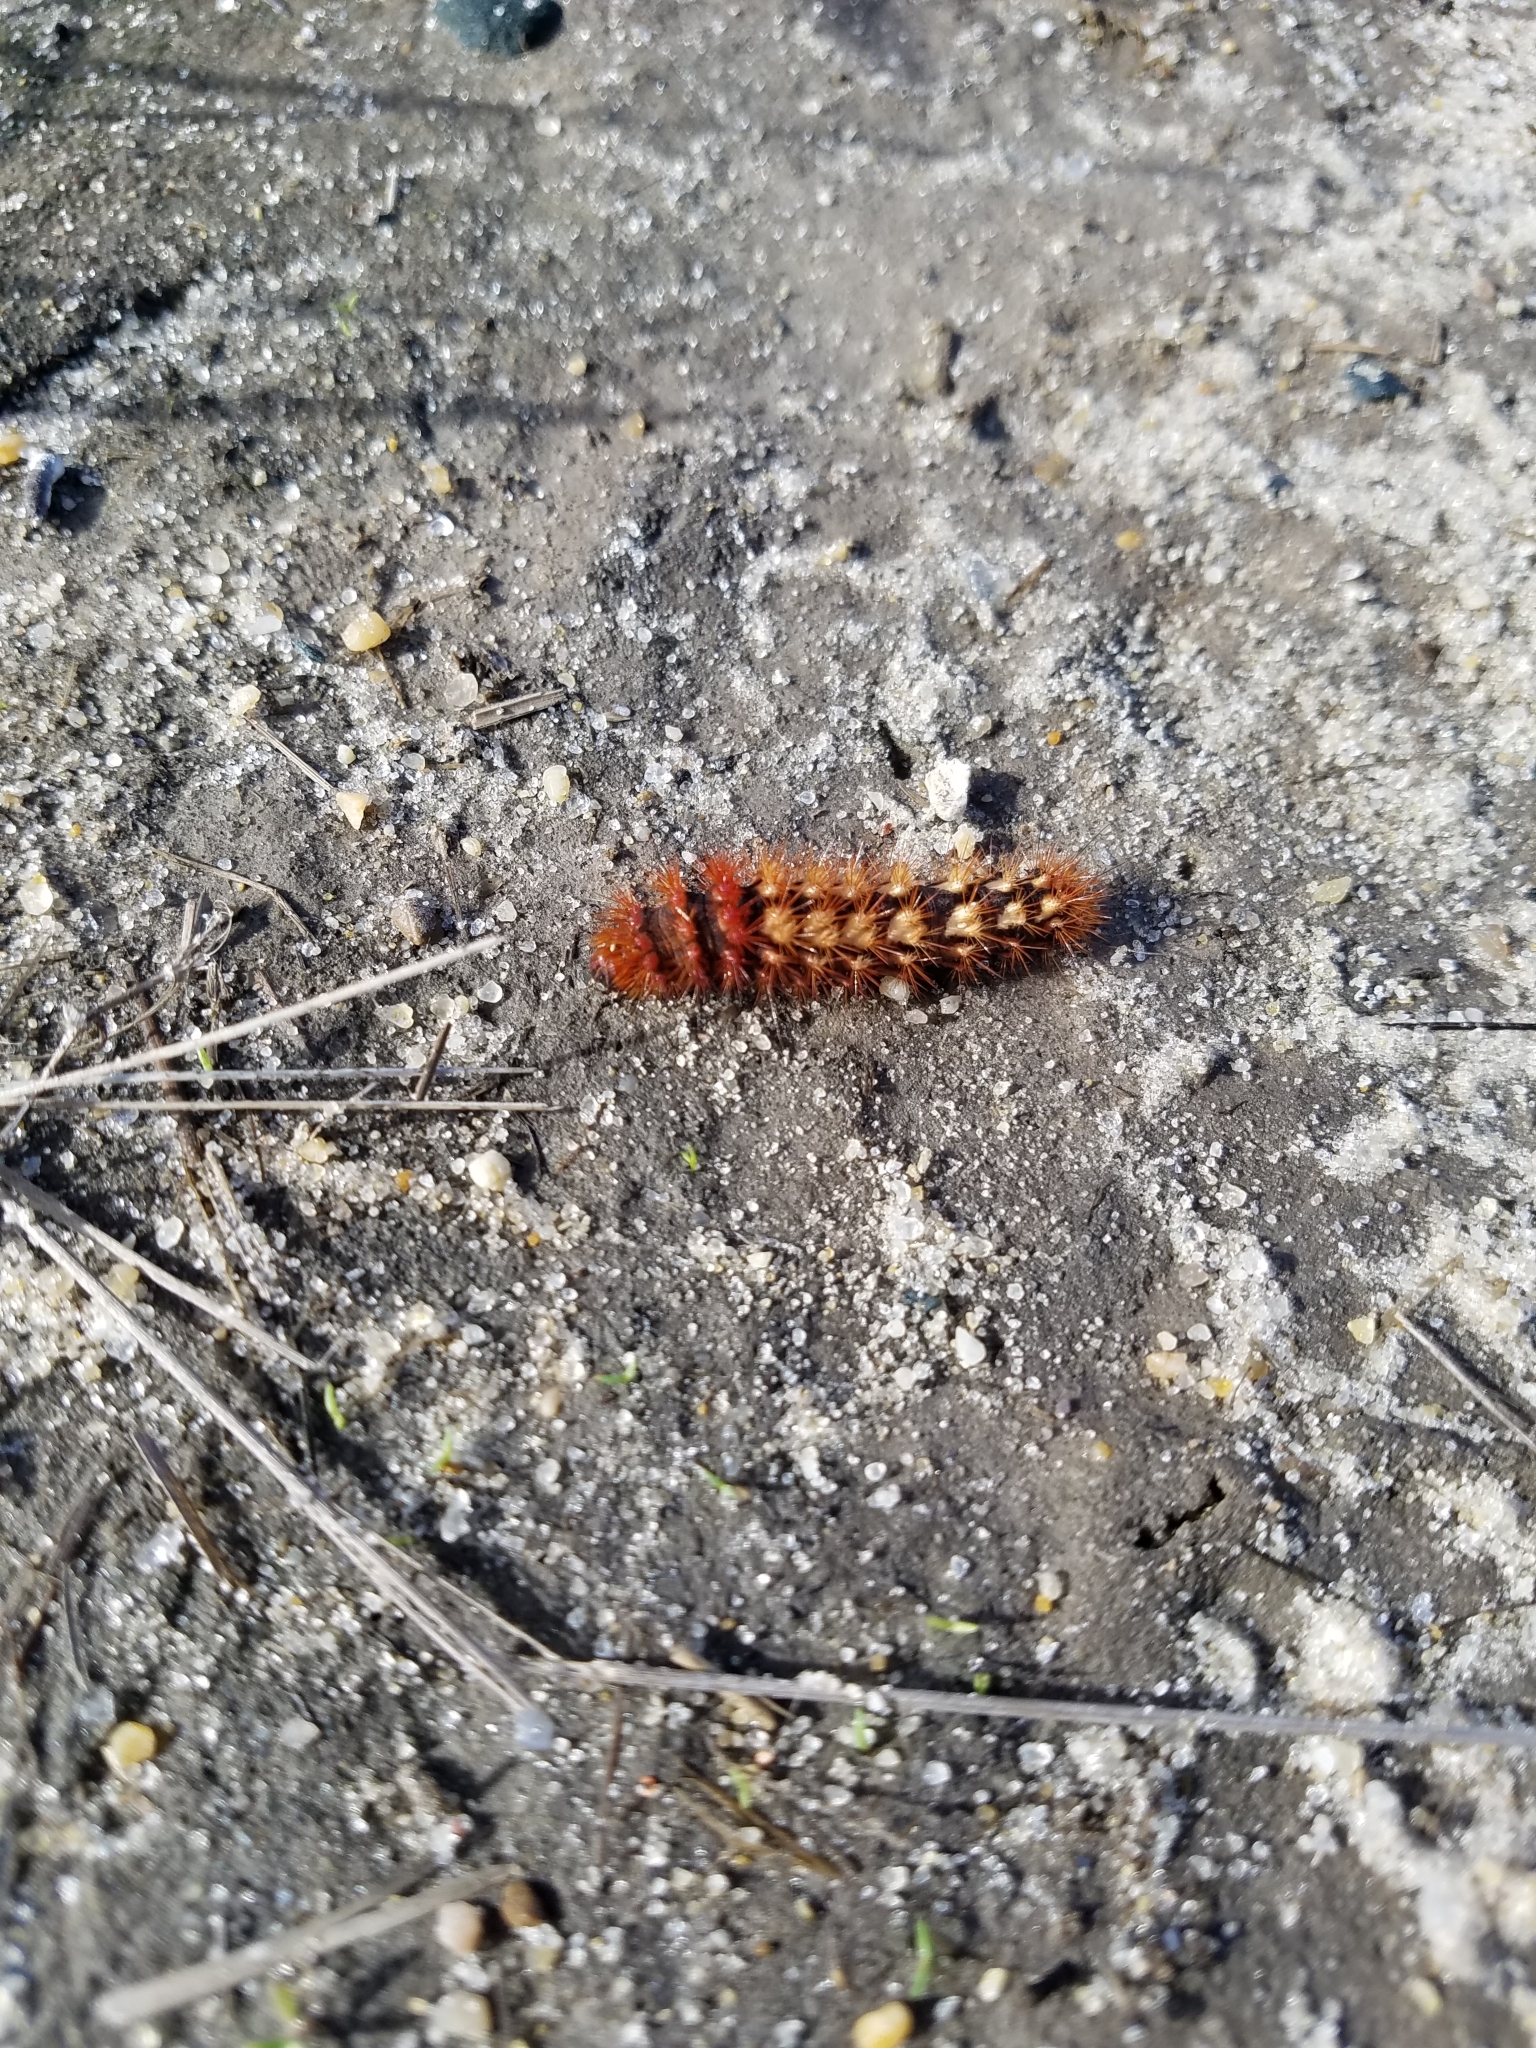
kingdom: Animalia
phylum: Arthropoda
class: Insecta
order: Lepidoptera
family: Noctuidae
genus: Acronicta
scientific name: Acronicta longa
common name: Long-winged dagger
